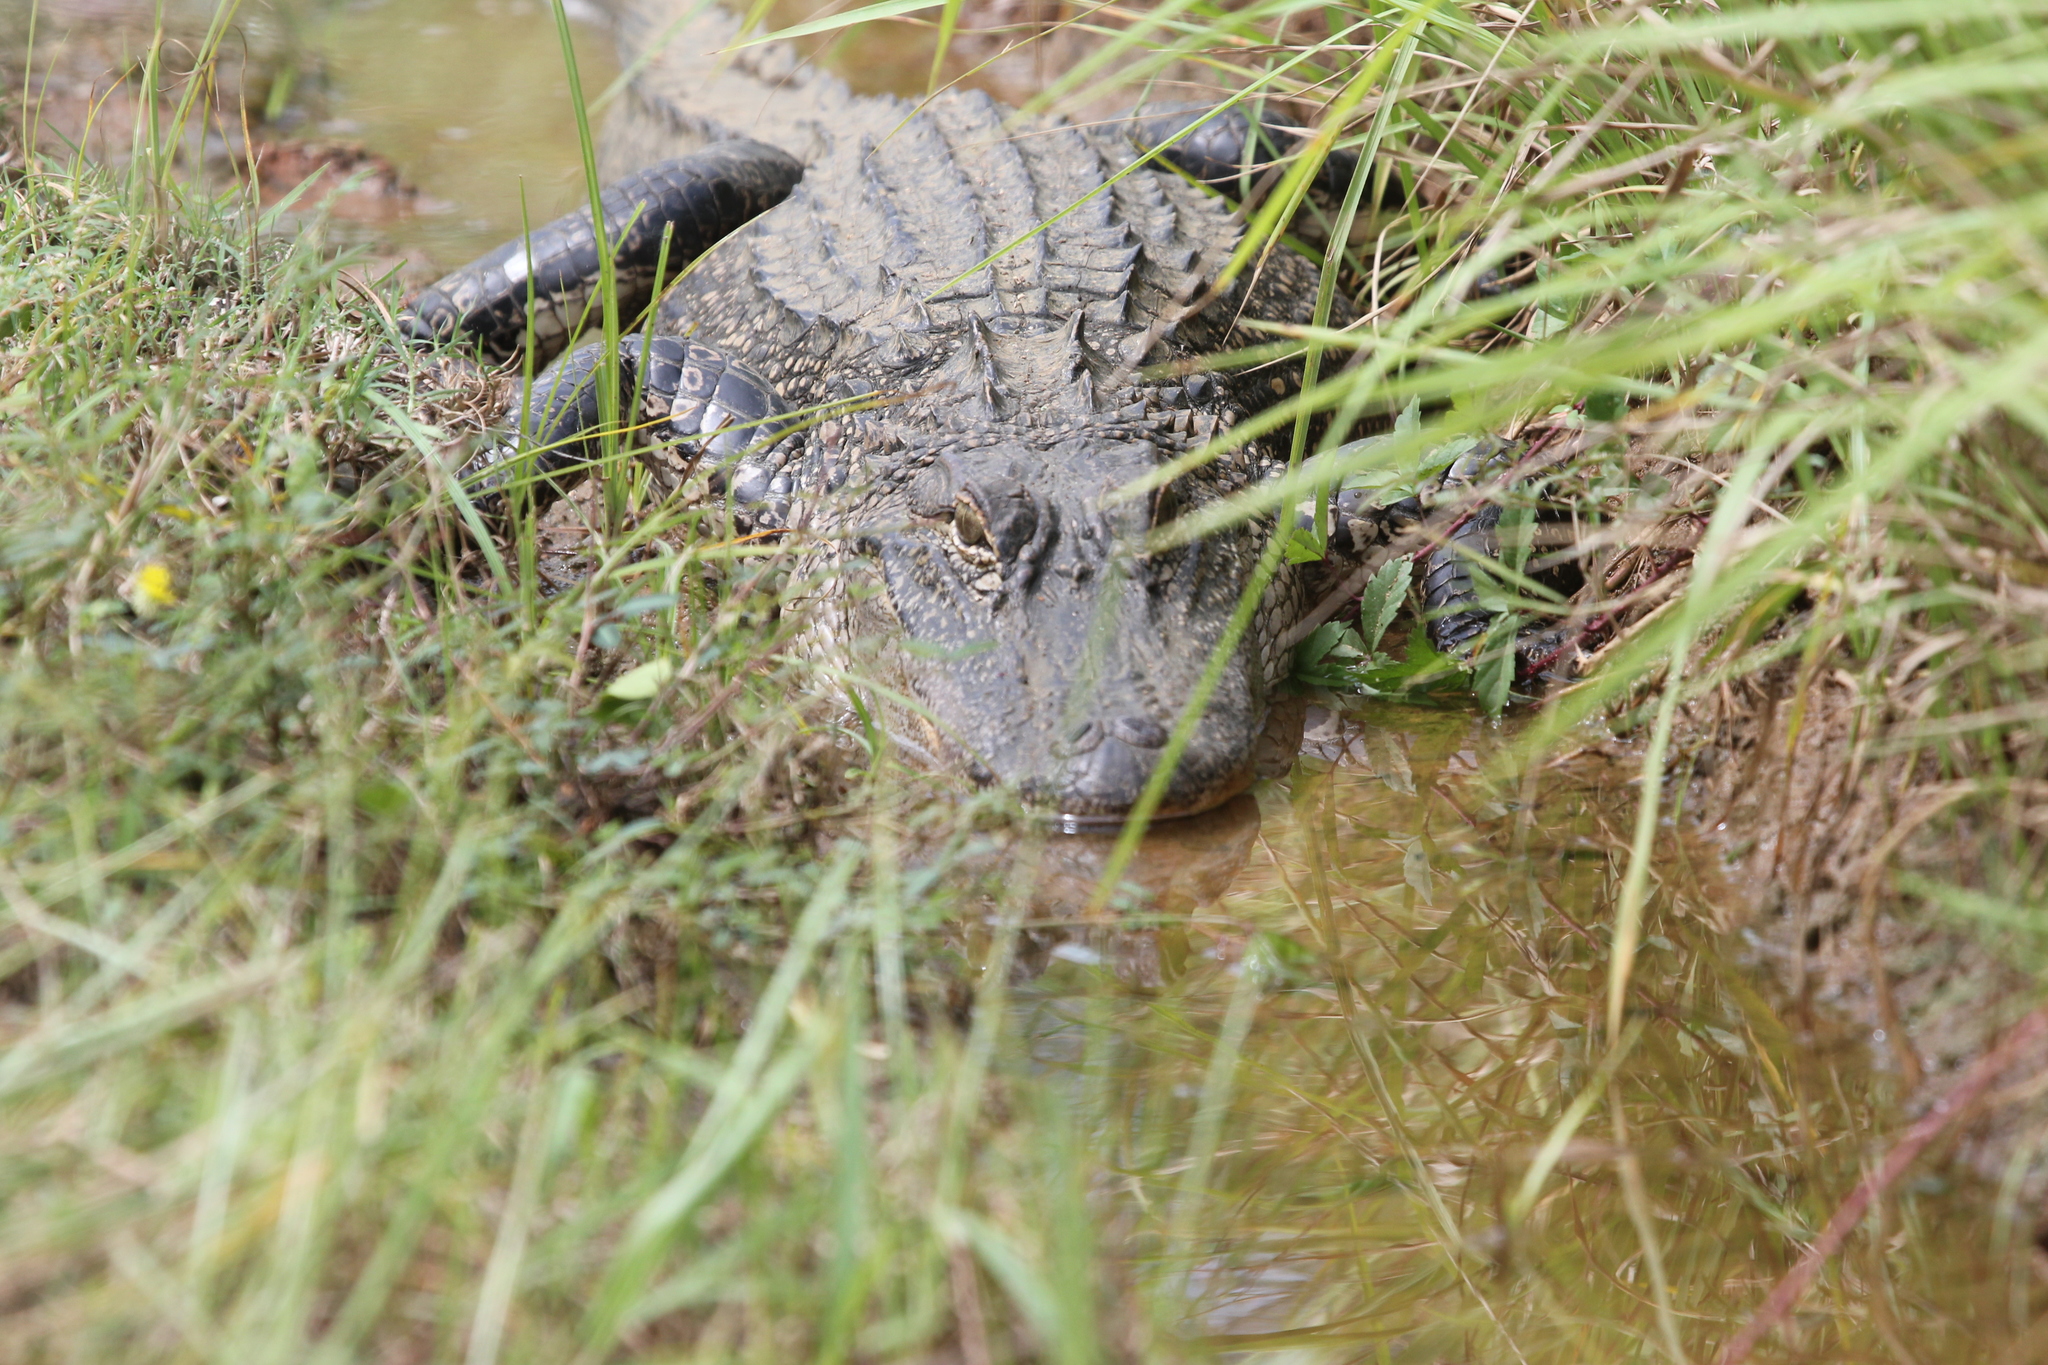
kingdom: Animalia
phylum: Chordata
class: Crocodylia
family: Alligatoridae
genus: Alligator
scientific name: Alligator mississippiensis
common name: American alligator
